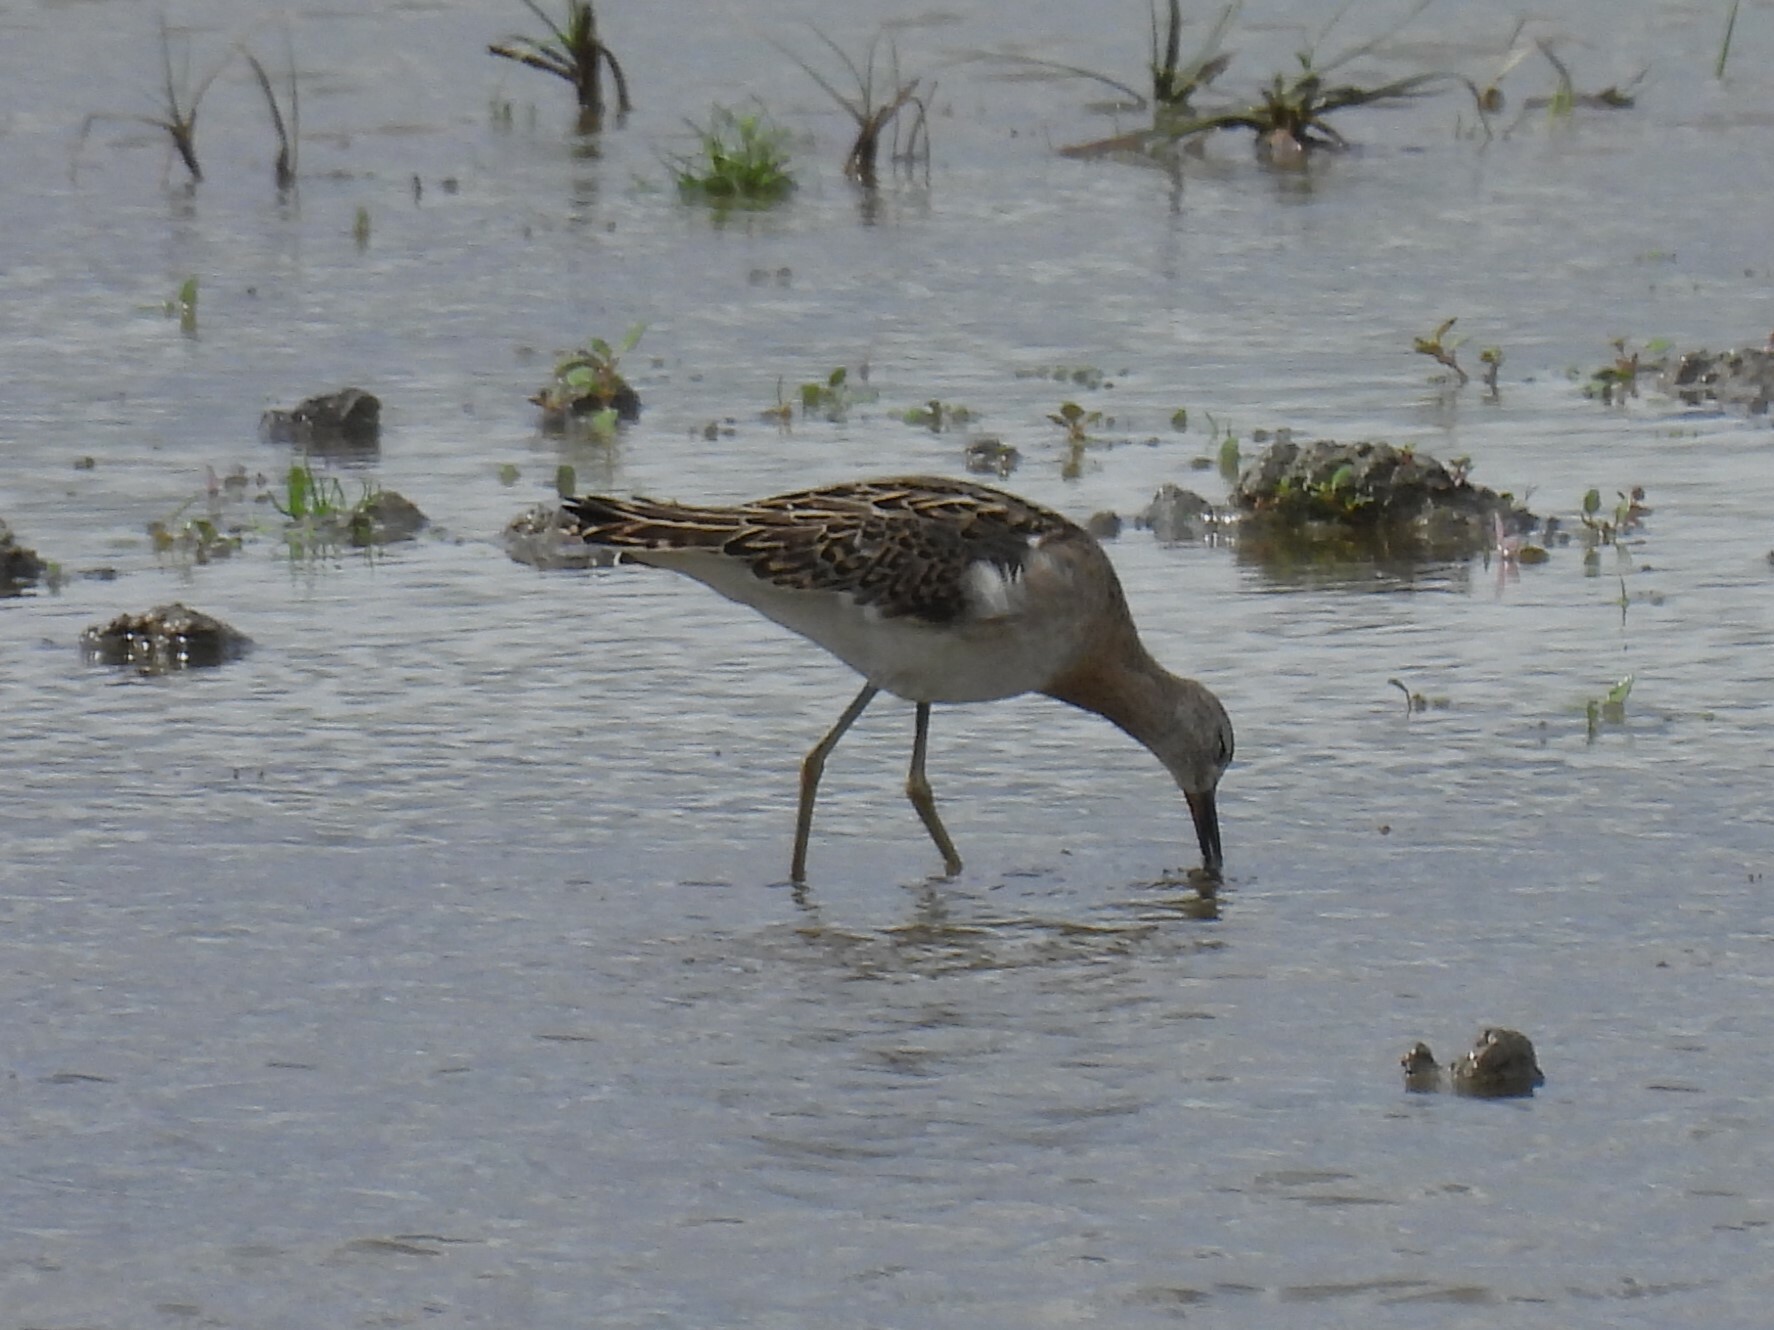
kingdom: Animalia
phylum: Chordata
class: Aves
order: Charadriiformes
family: Scolopacidae
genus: Calidris
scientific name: Calidris pugnax
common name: Ruff
